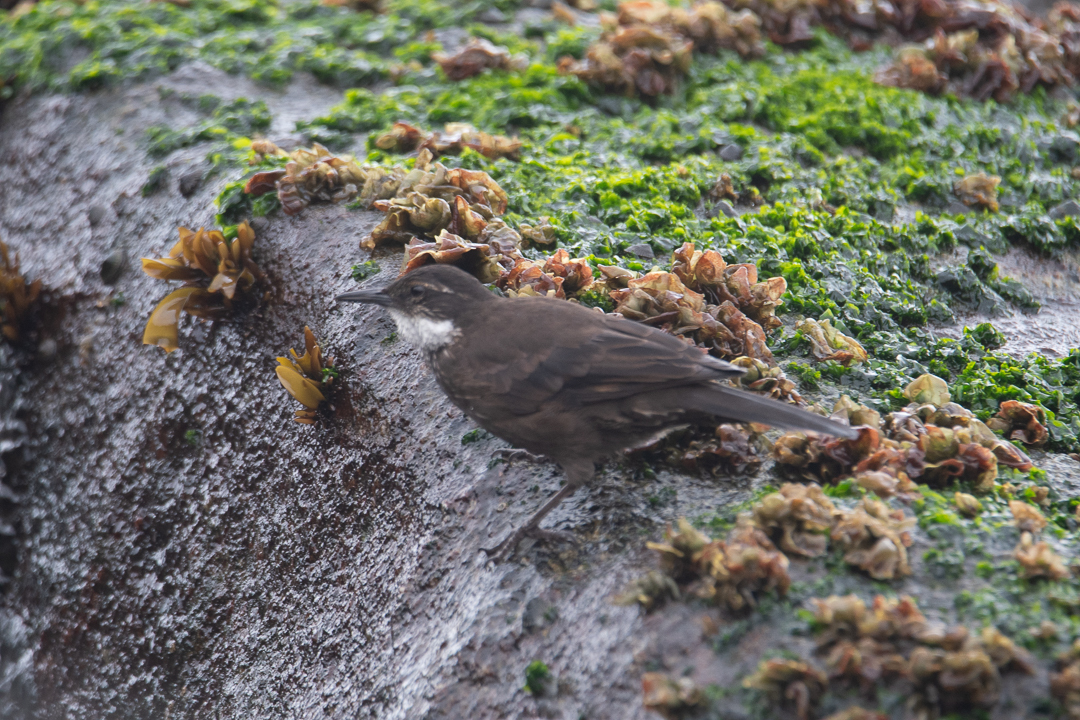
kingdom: Animalia
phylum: Chordata
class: Aves
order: Passeriformes
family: Furnariidae
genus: Cinclodes
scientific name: Cinclodes nigrofumosus
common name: Chilean seaside cinclodes
